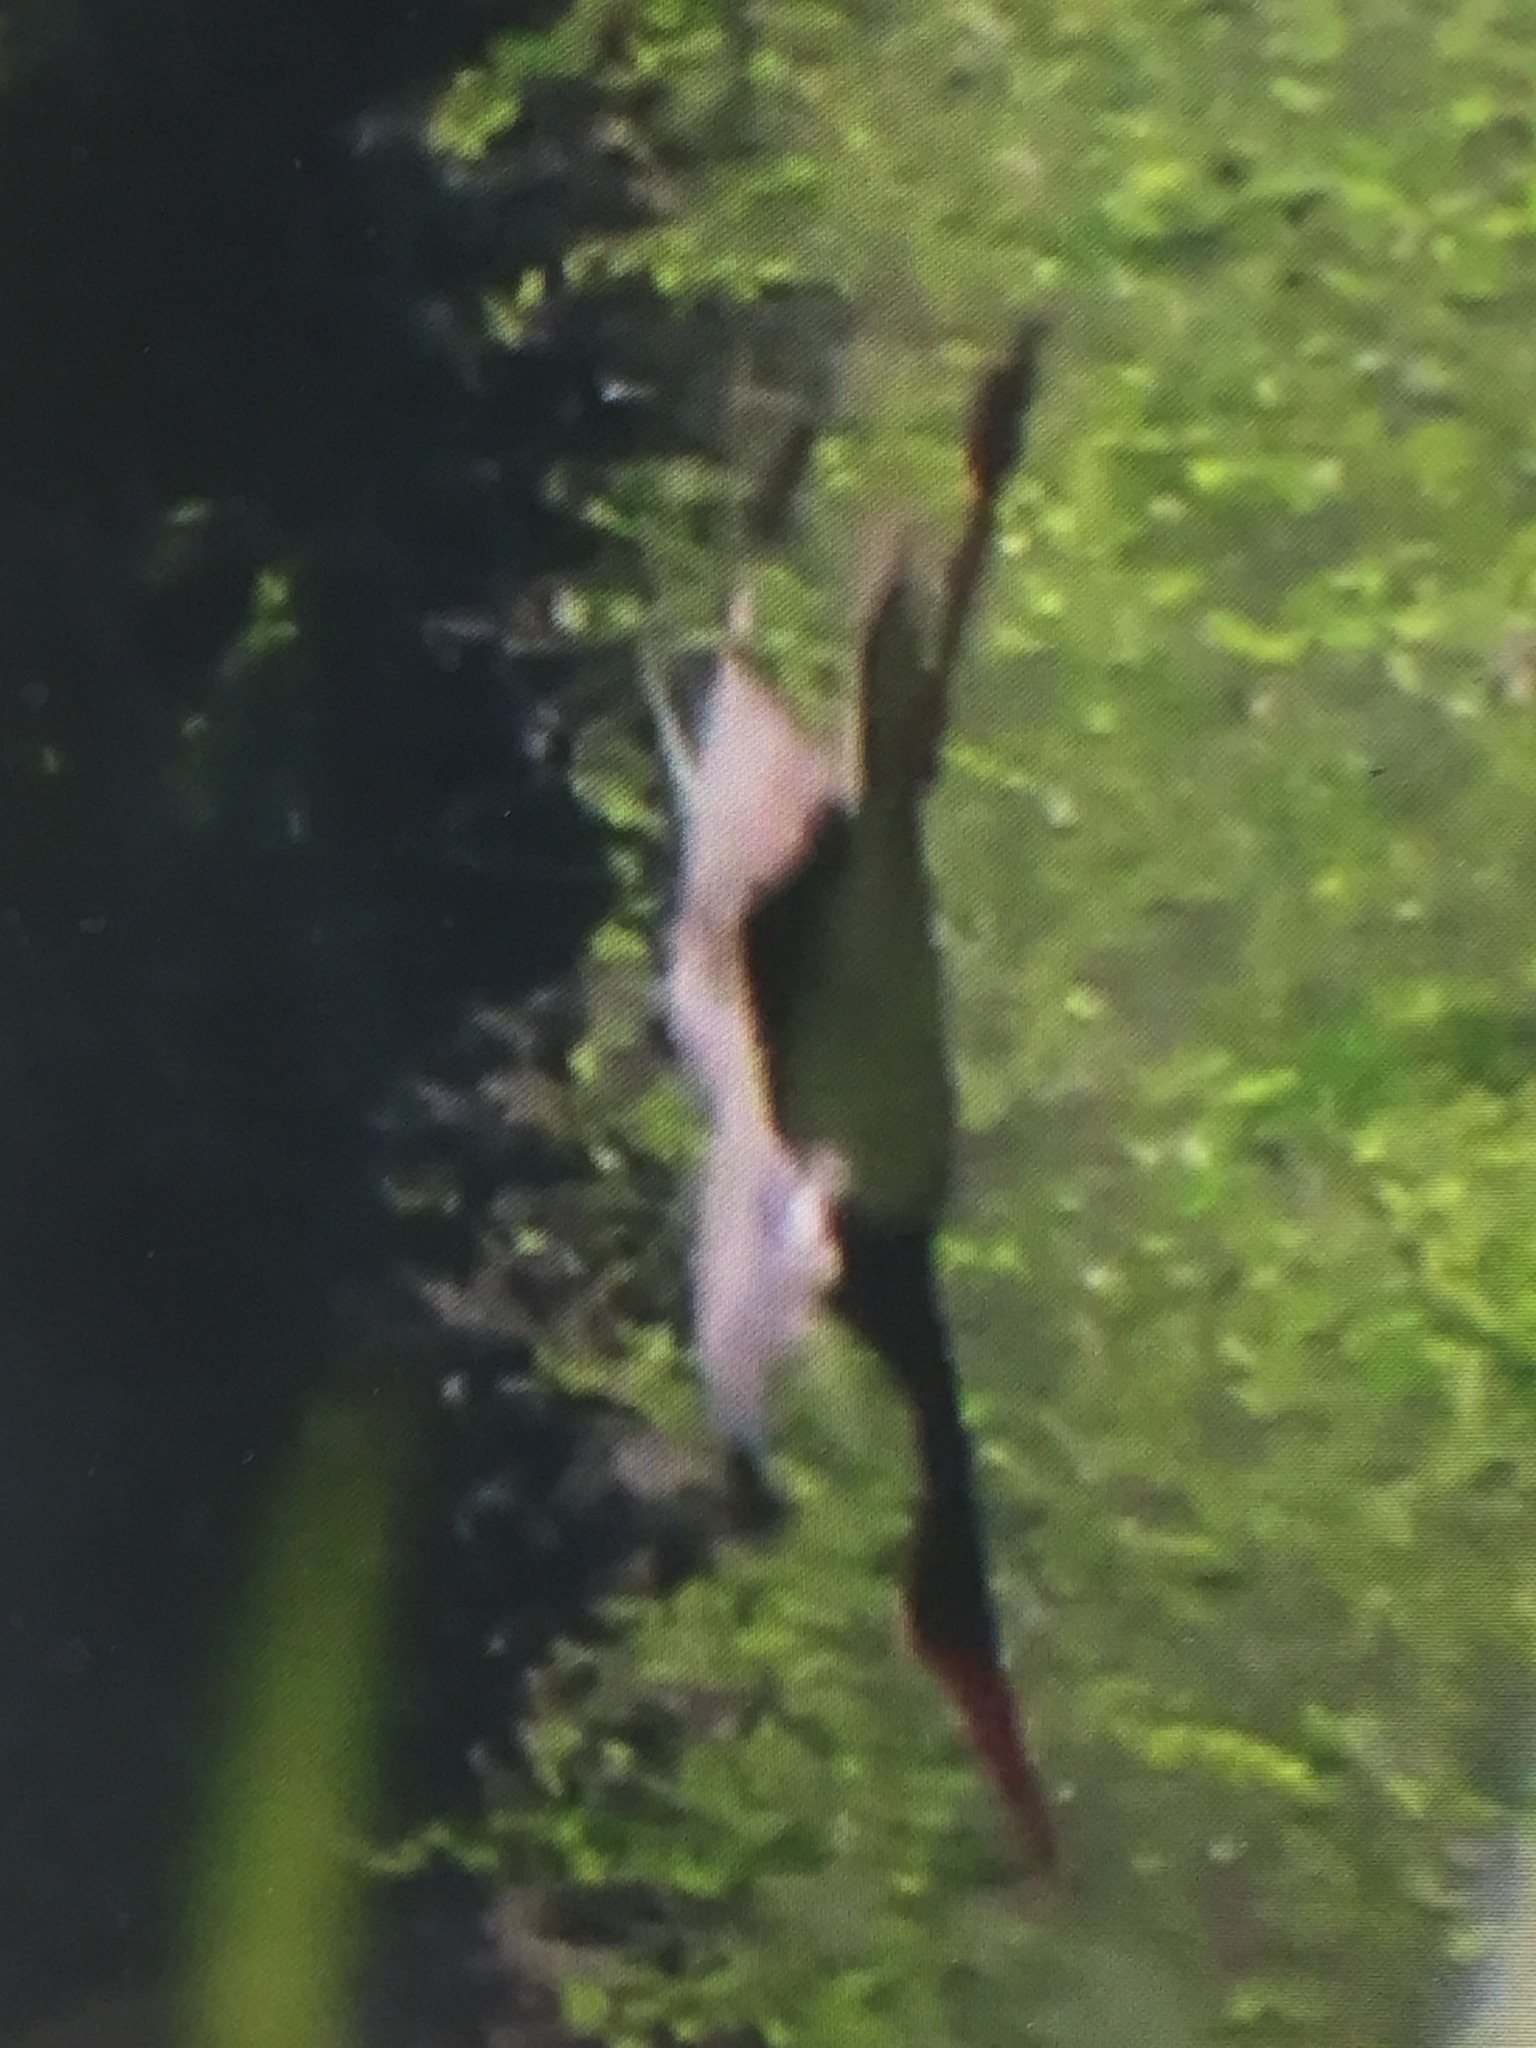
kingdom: Animalia
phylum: Chordata
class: Aves
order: Ciconiiformes
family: Ciconiidae
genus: Ciconia
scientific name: Ciconia nigra
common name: Black stork
